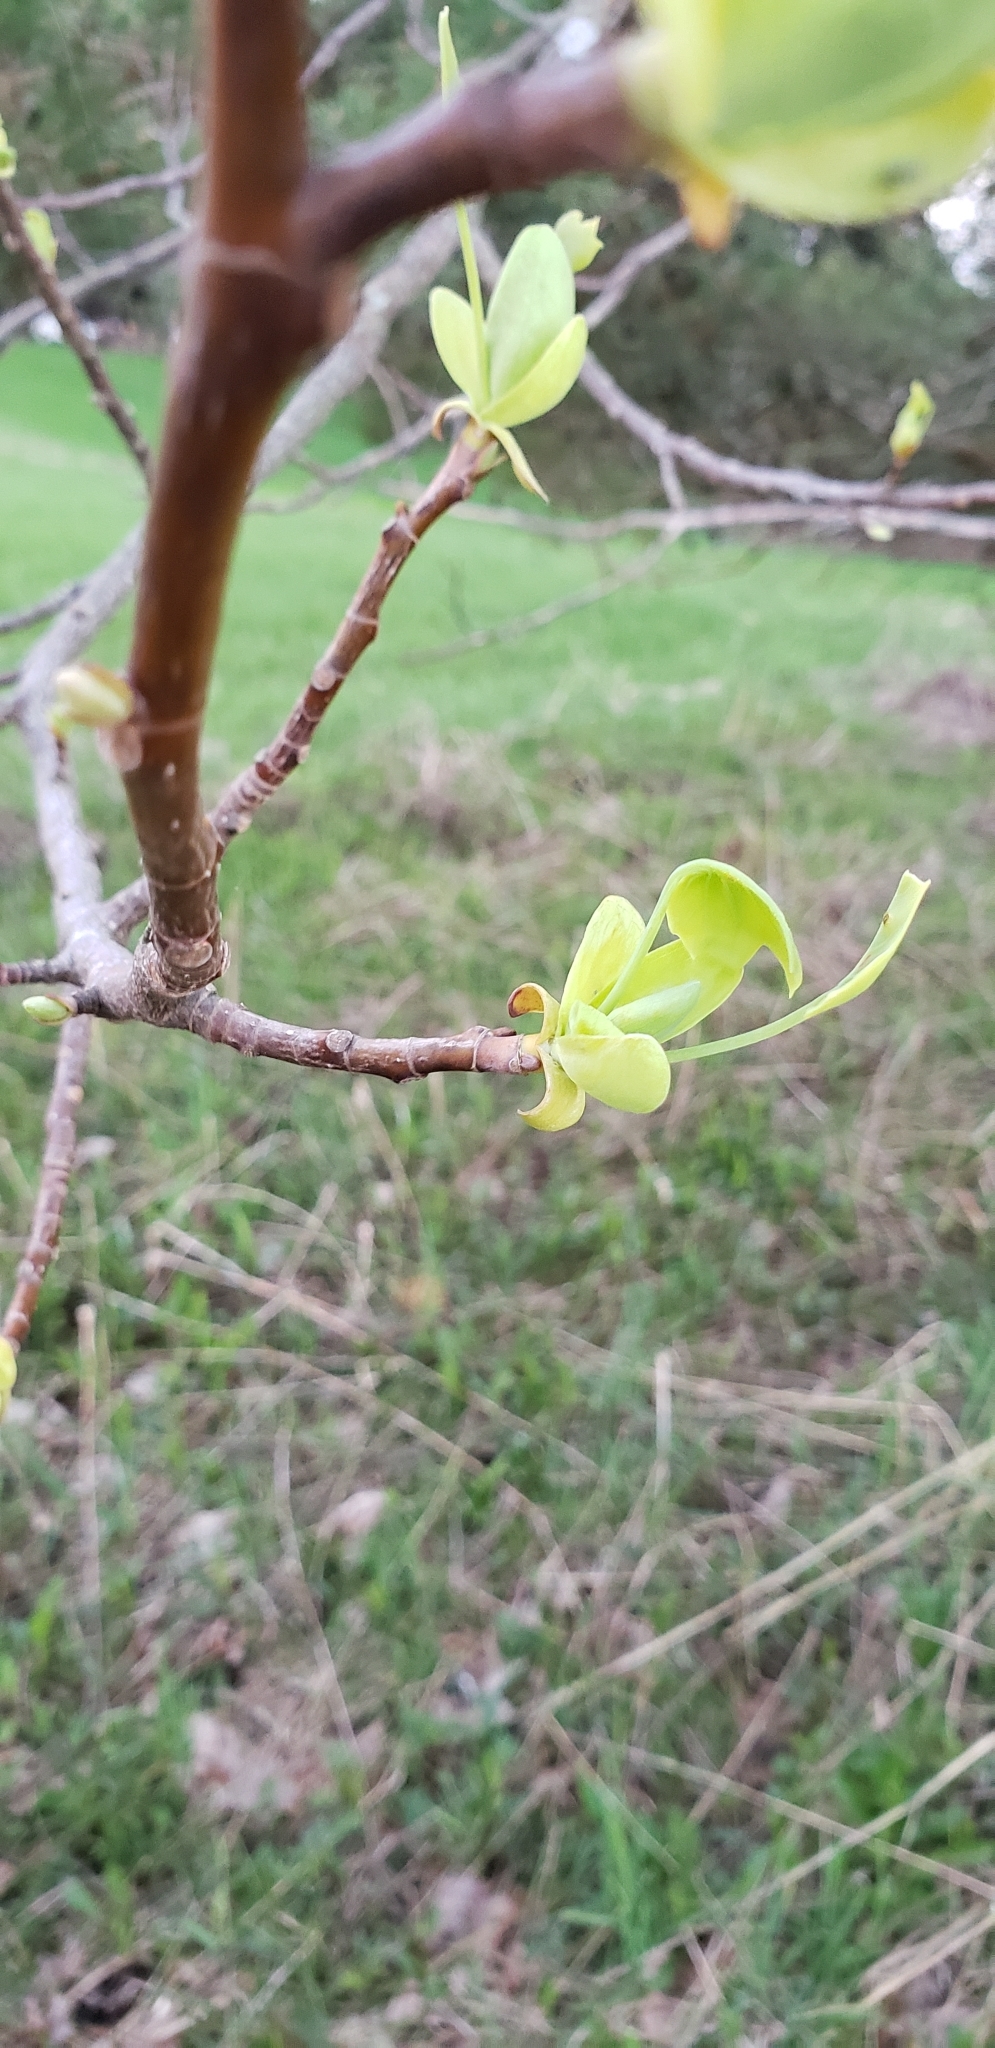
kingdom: Plantae
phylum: Tracheophyta
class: Magnoliopsida
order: Magnoliales
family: Magnoliaceae
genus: Liriodendron
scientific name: Liriodendron tulipifera
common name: Tulip tree
